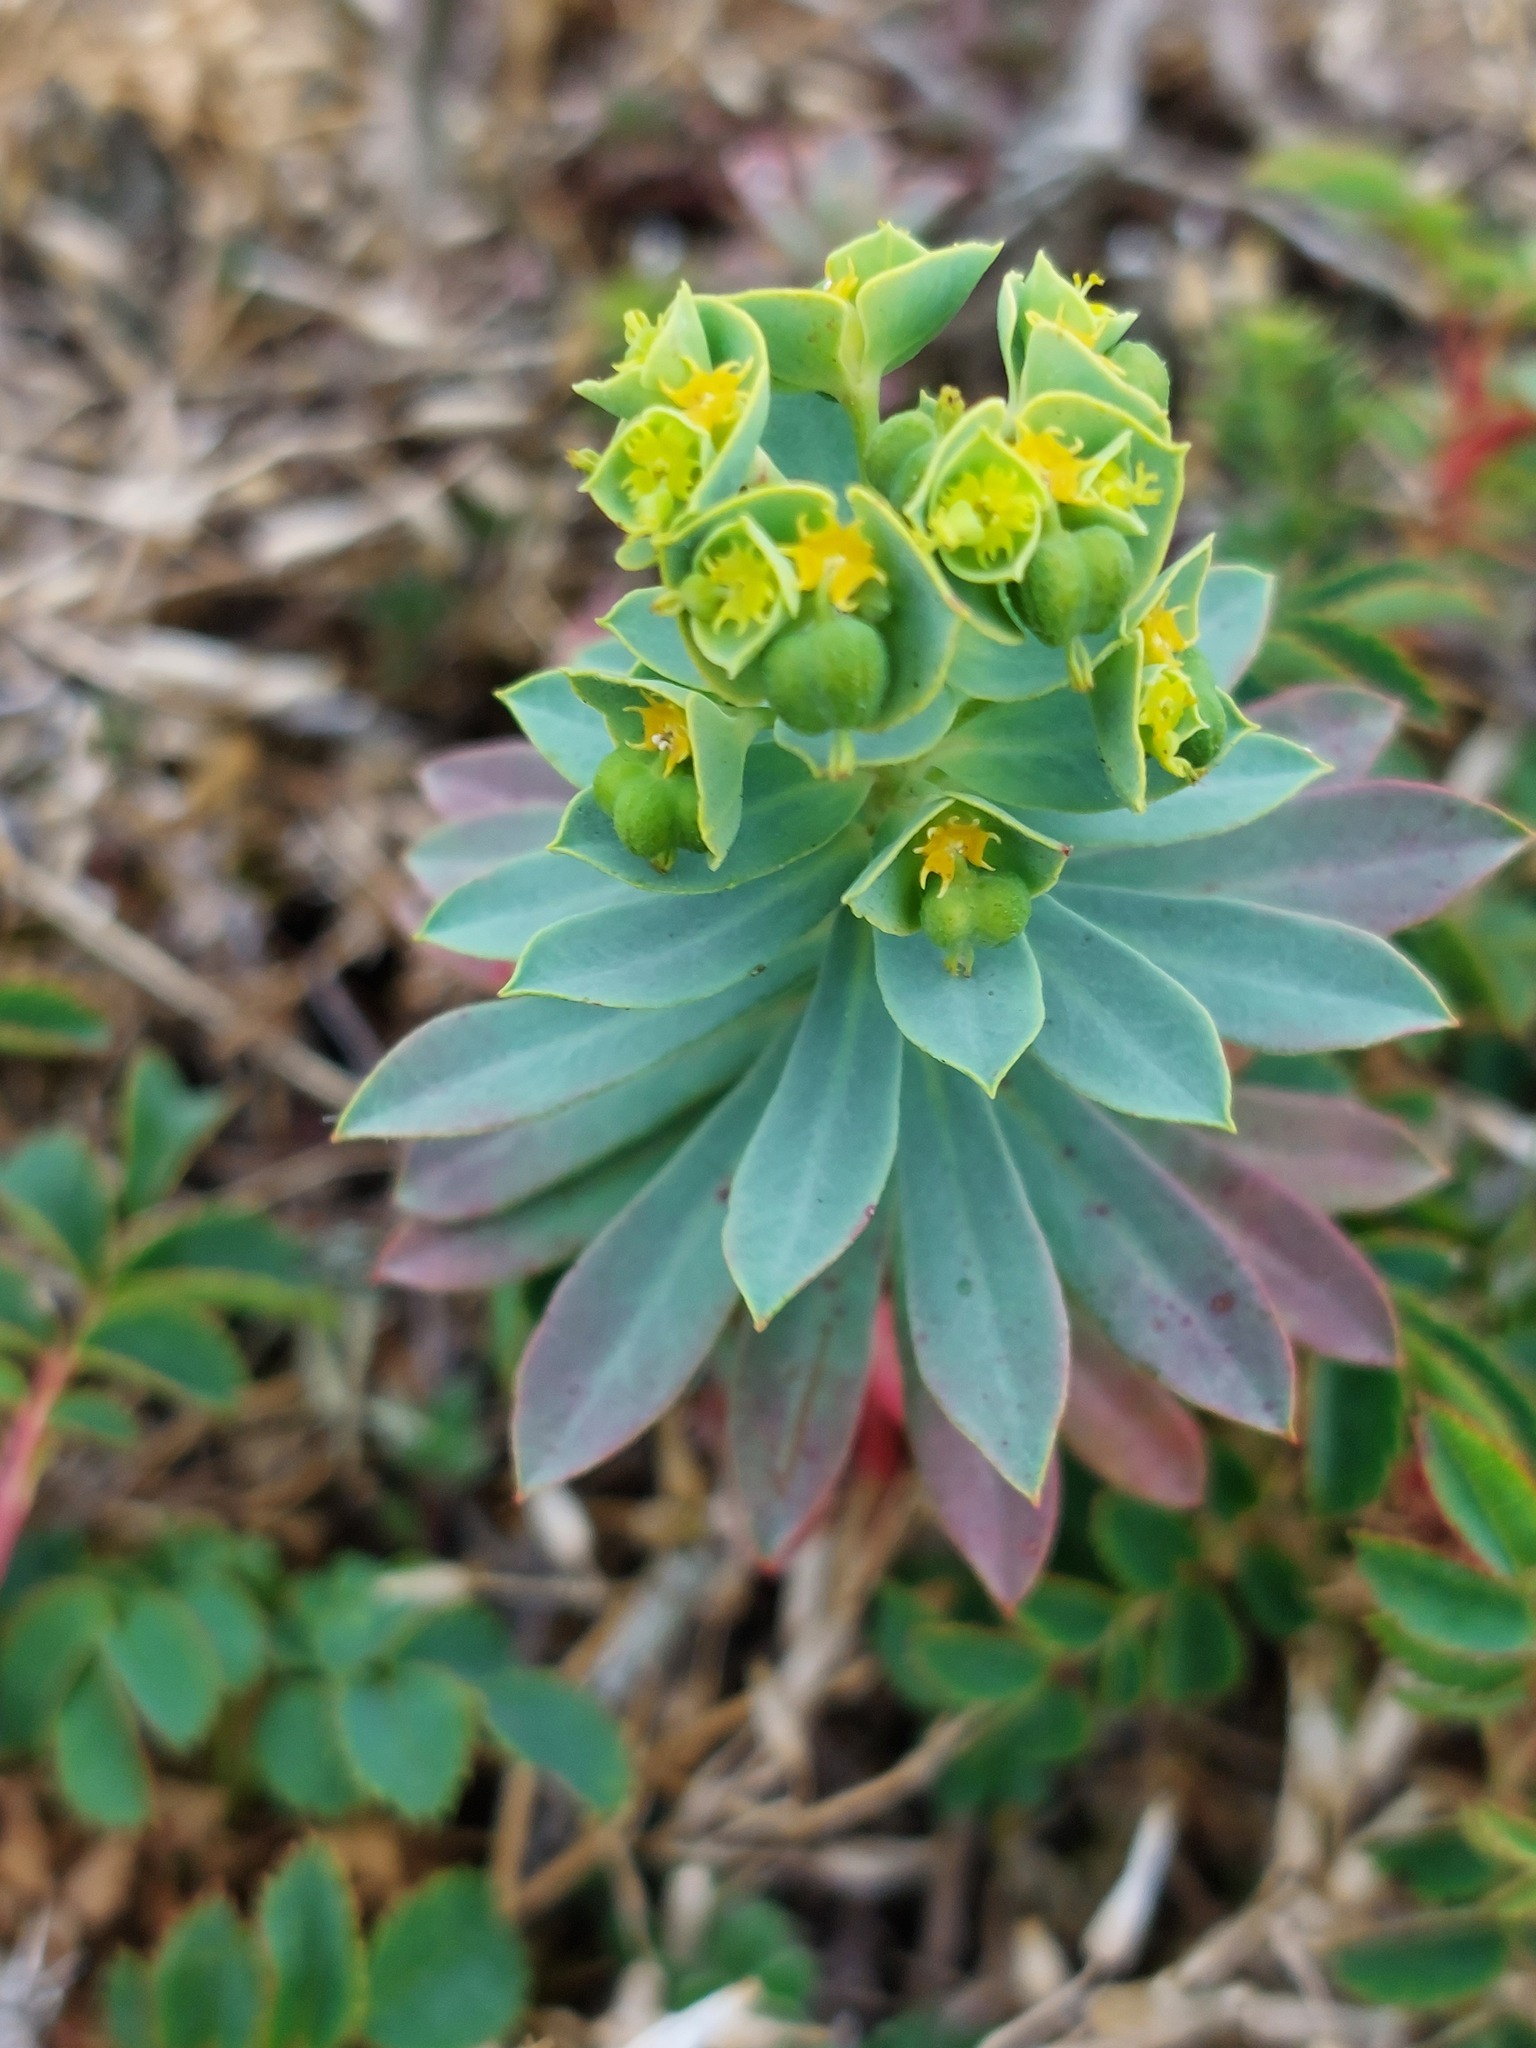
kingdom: Plantae
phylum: Tracheophyta
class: Magnoliopsida
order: Malpighiales
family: Euphorbiaceae
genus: Euphorbia
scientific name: Euphorbia portlandica
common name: Portland spurge
